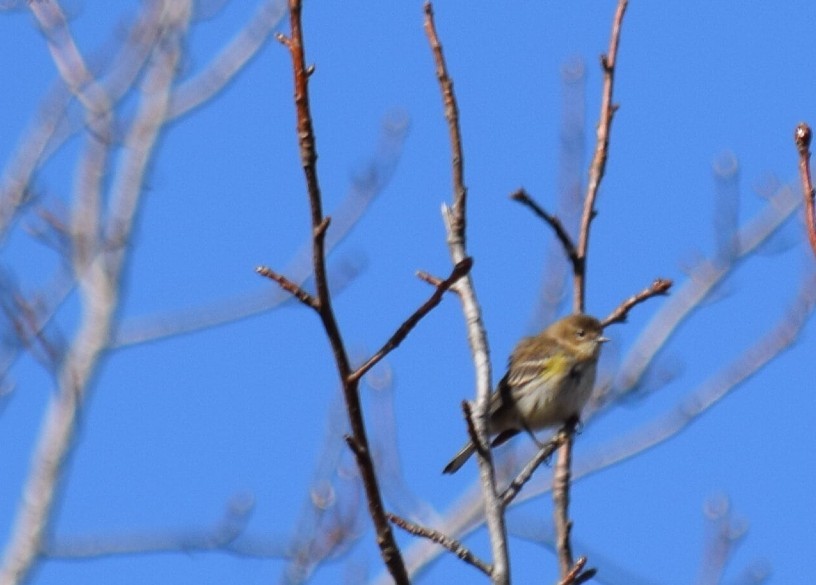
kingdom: Animalia
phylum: Chordata
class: Aves
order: Passeriformes
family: Parulidae
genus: Setophaga
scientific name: Setophaga coronata
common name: Myrtle warbler
